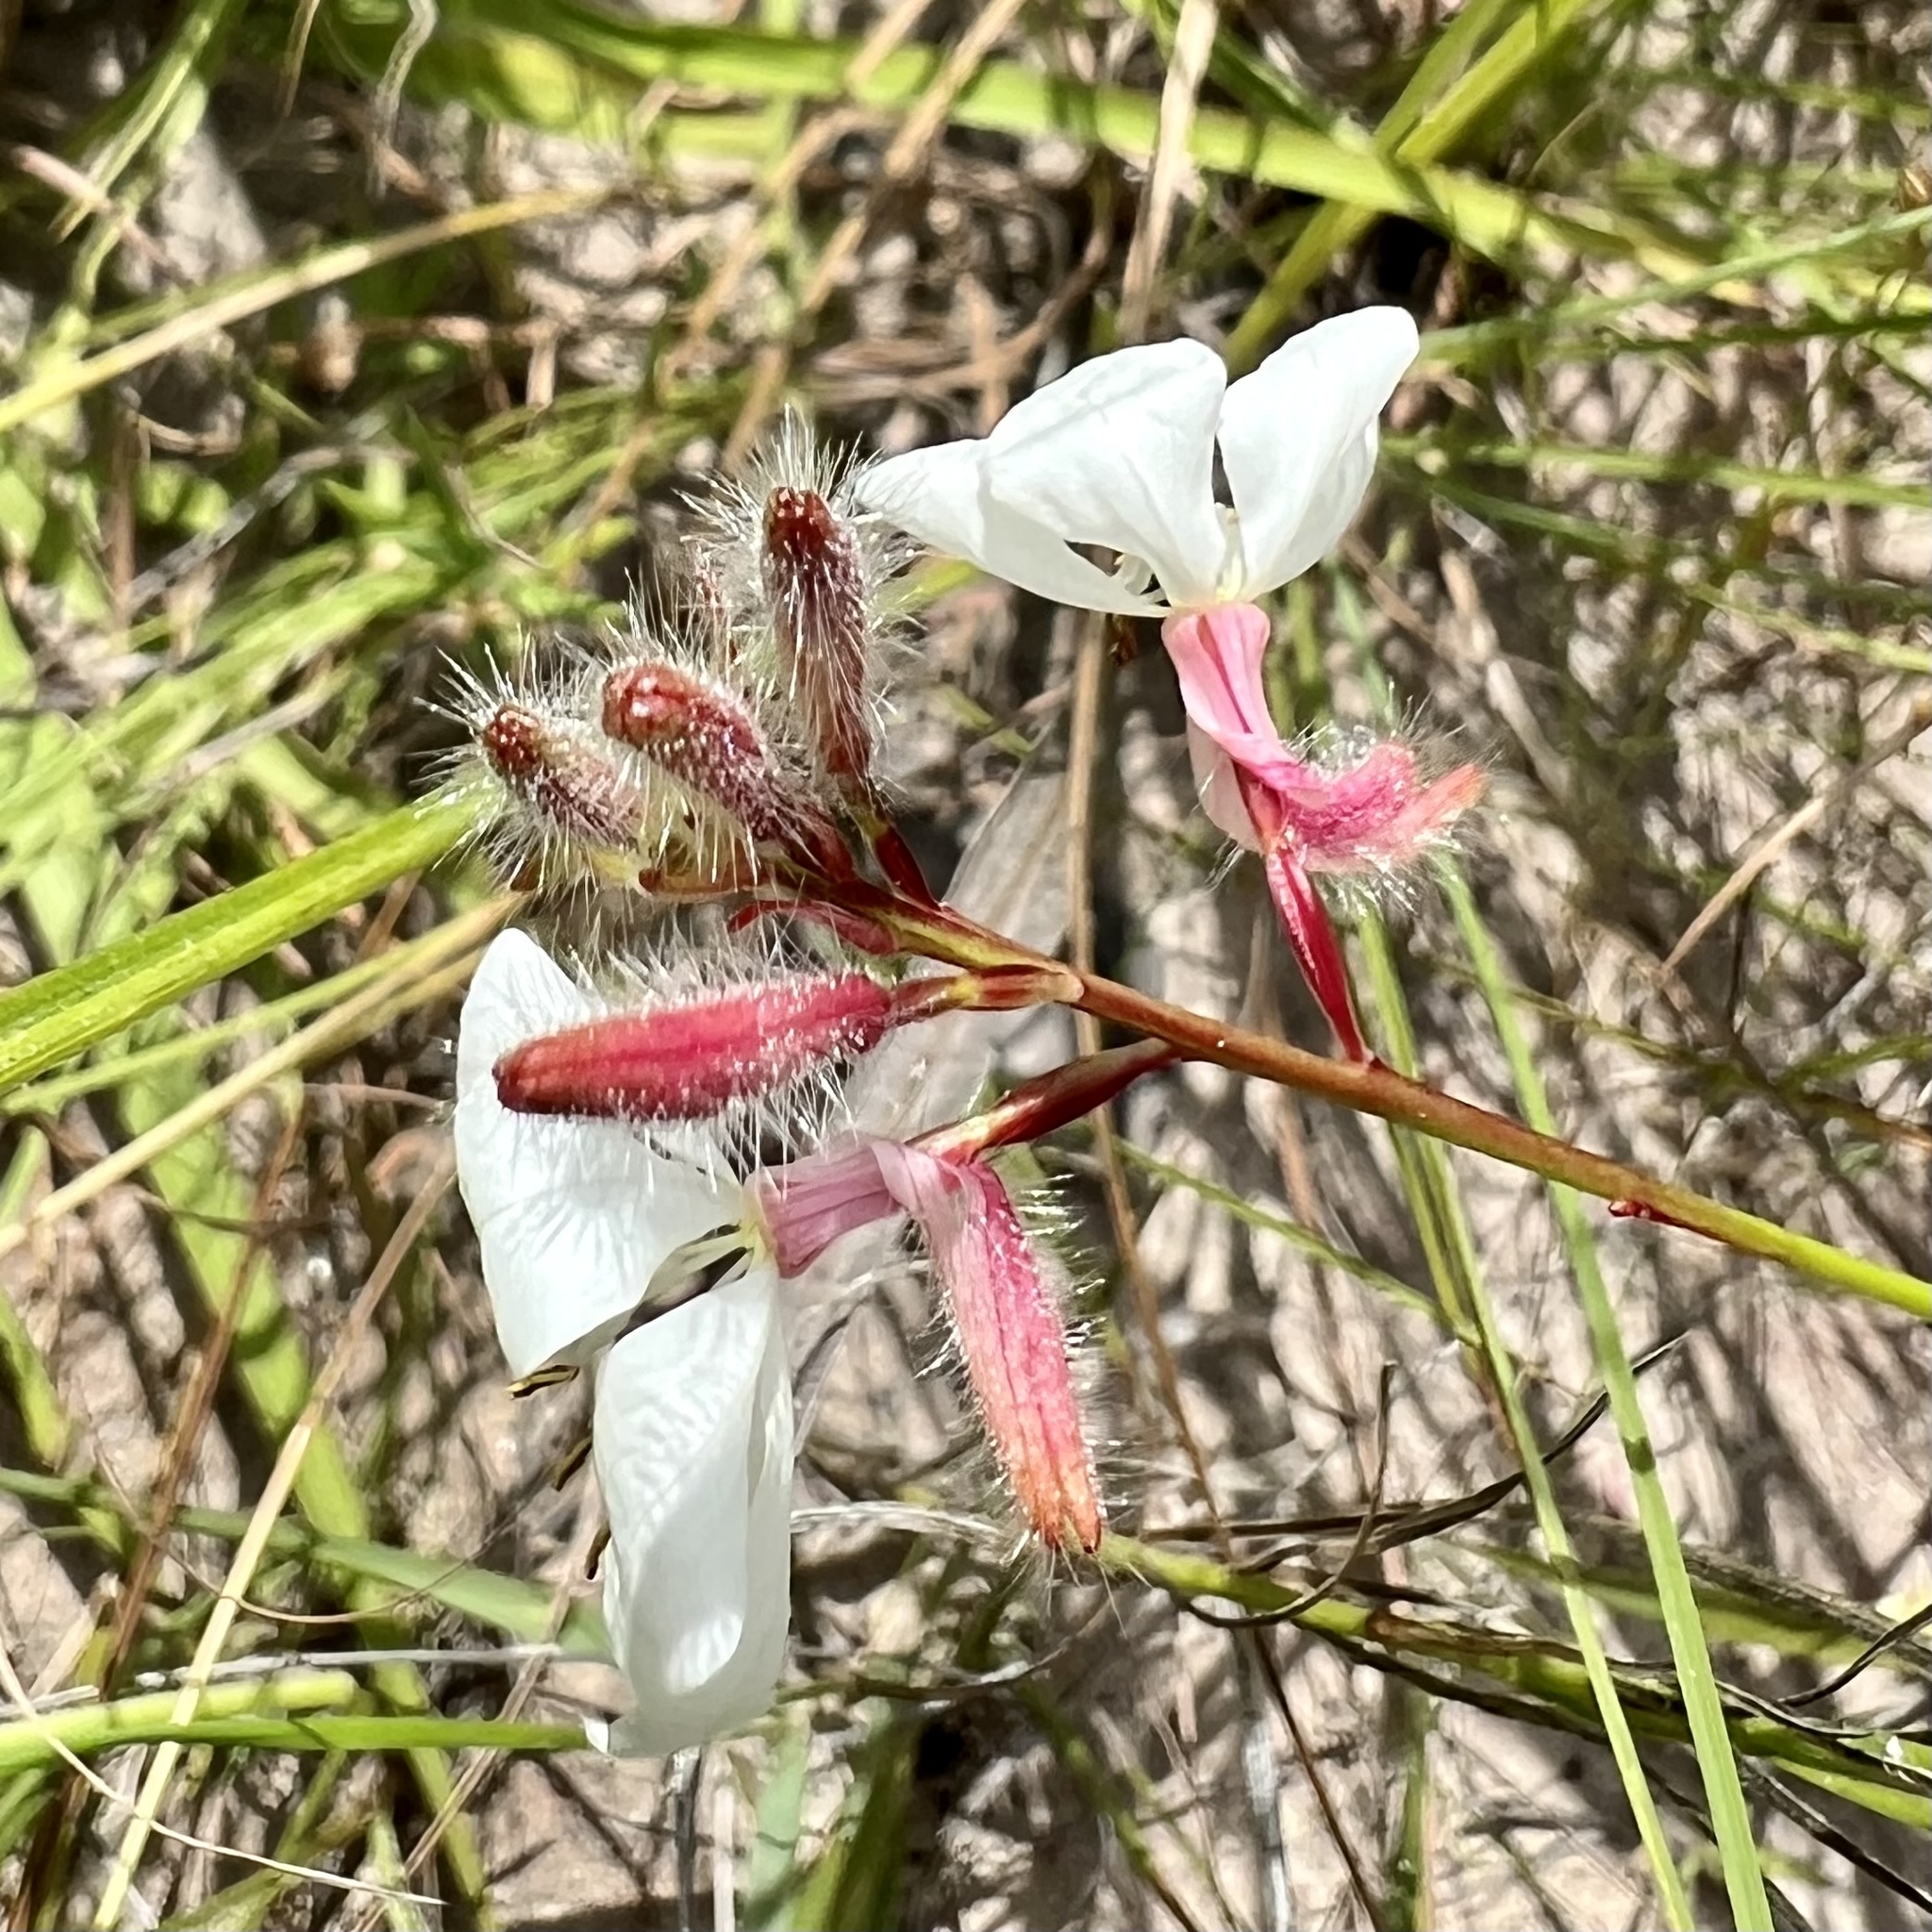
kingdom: Plantae
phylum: Tracheophyta
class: Magnoliopsida
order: Myrtales
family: Onagraceae
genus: Oenothera
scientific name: Oenothera lindheimeri
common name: Lindheimer's beeblossom
